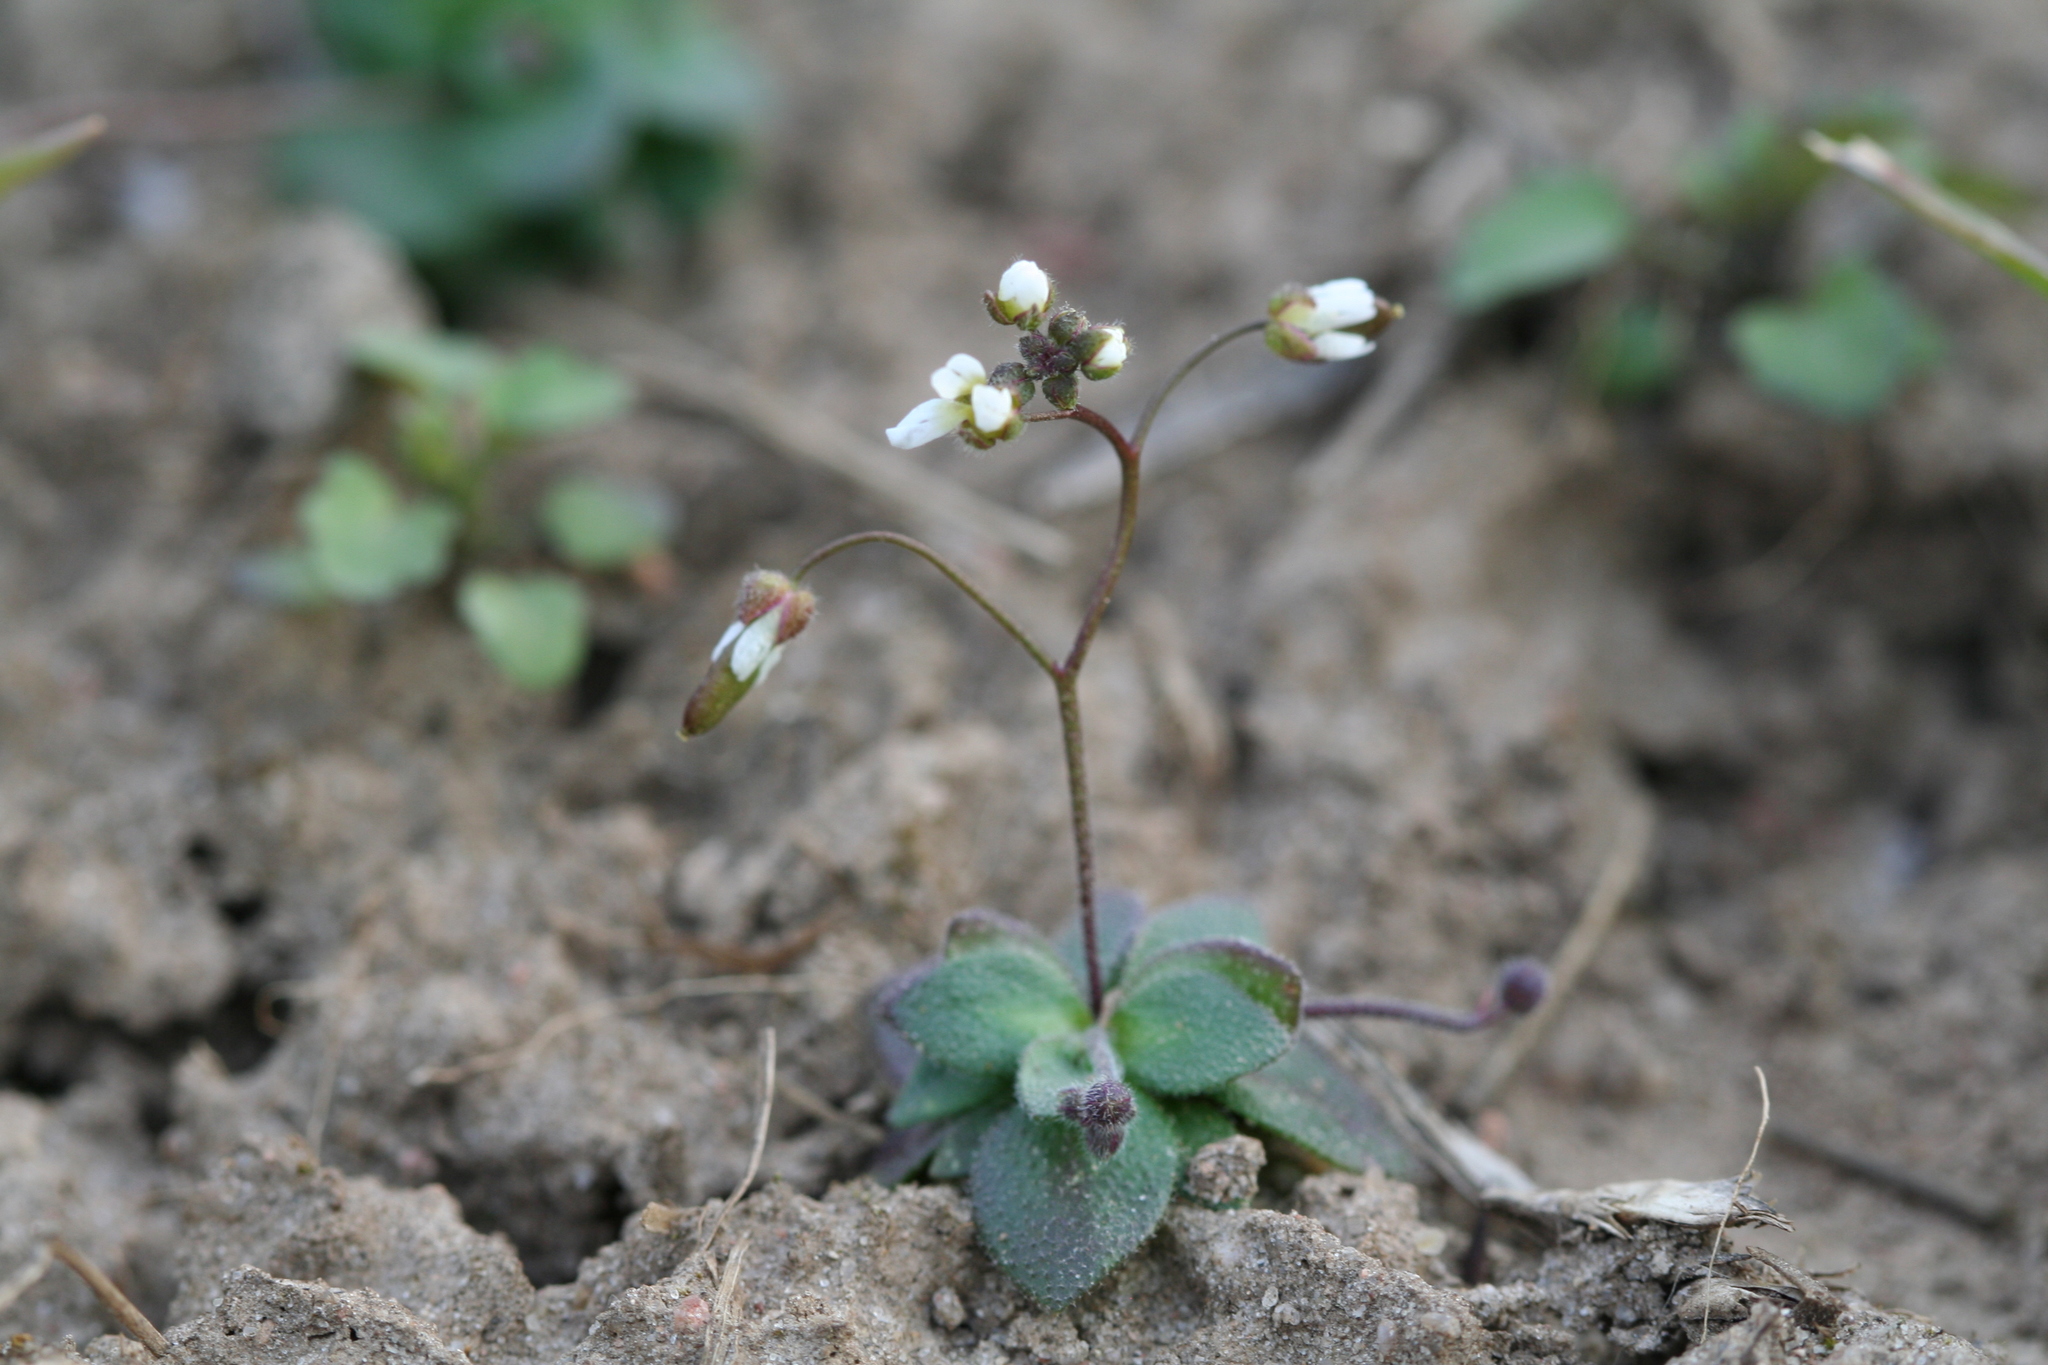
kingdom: Plantae
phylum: Tracheophyta
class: Magnoliopsida
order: Brassicales
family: Brassicaceae
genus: Draba
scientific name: Draba verna
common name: Spring draba
